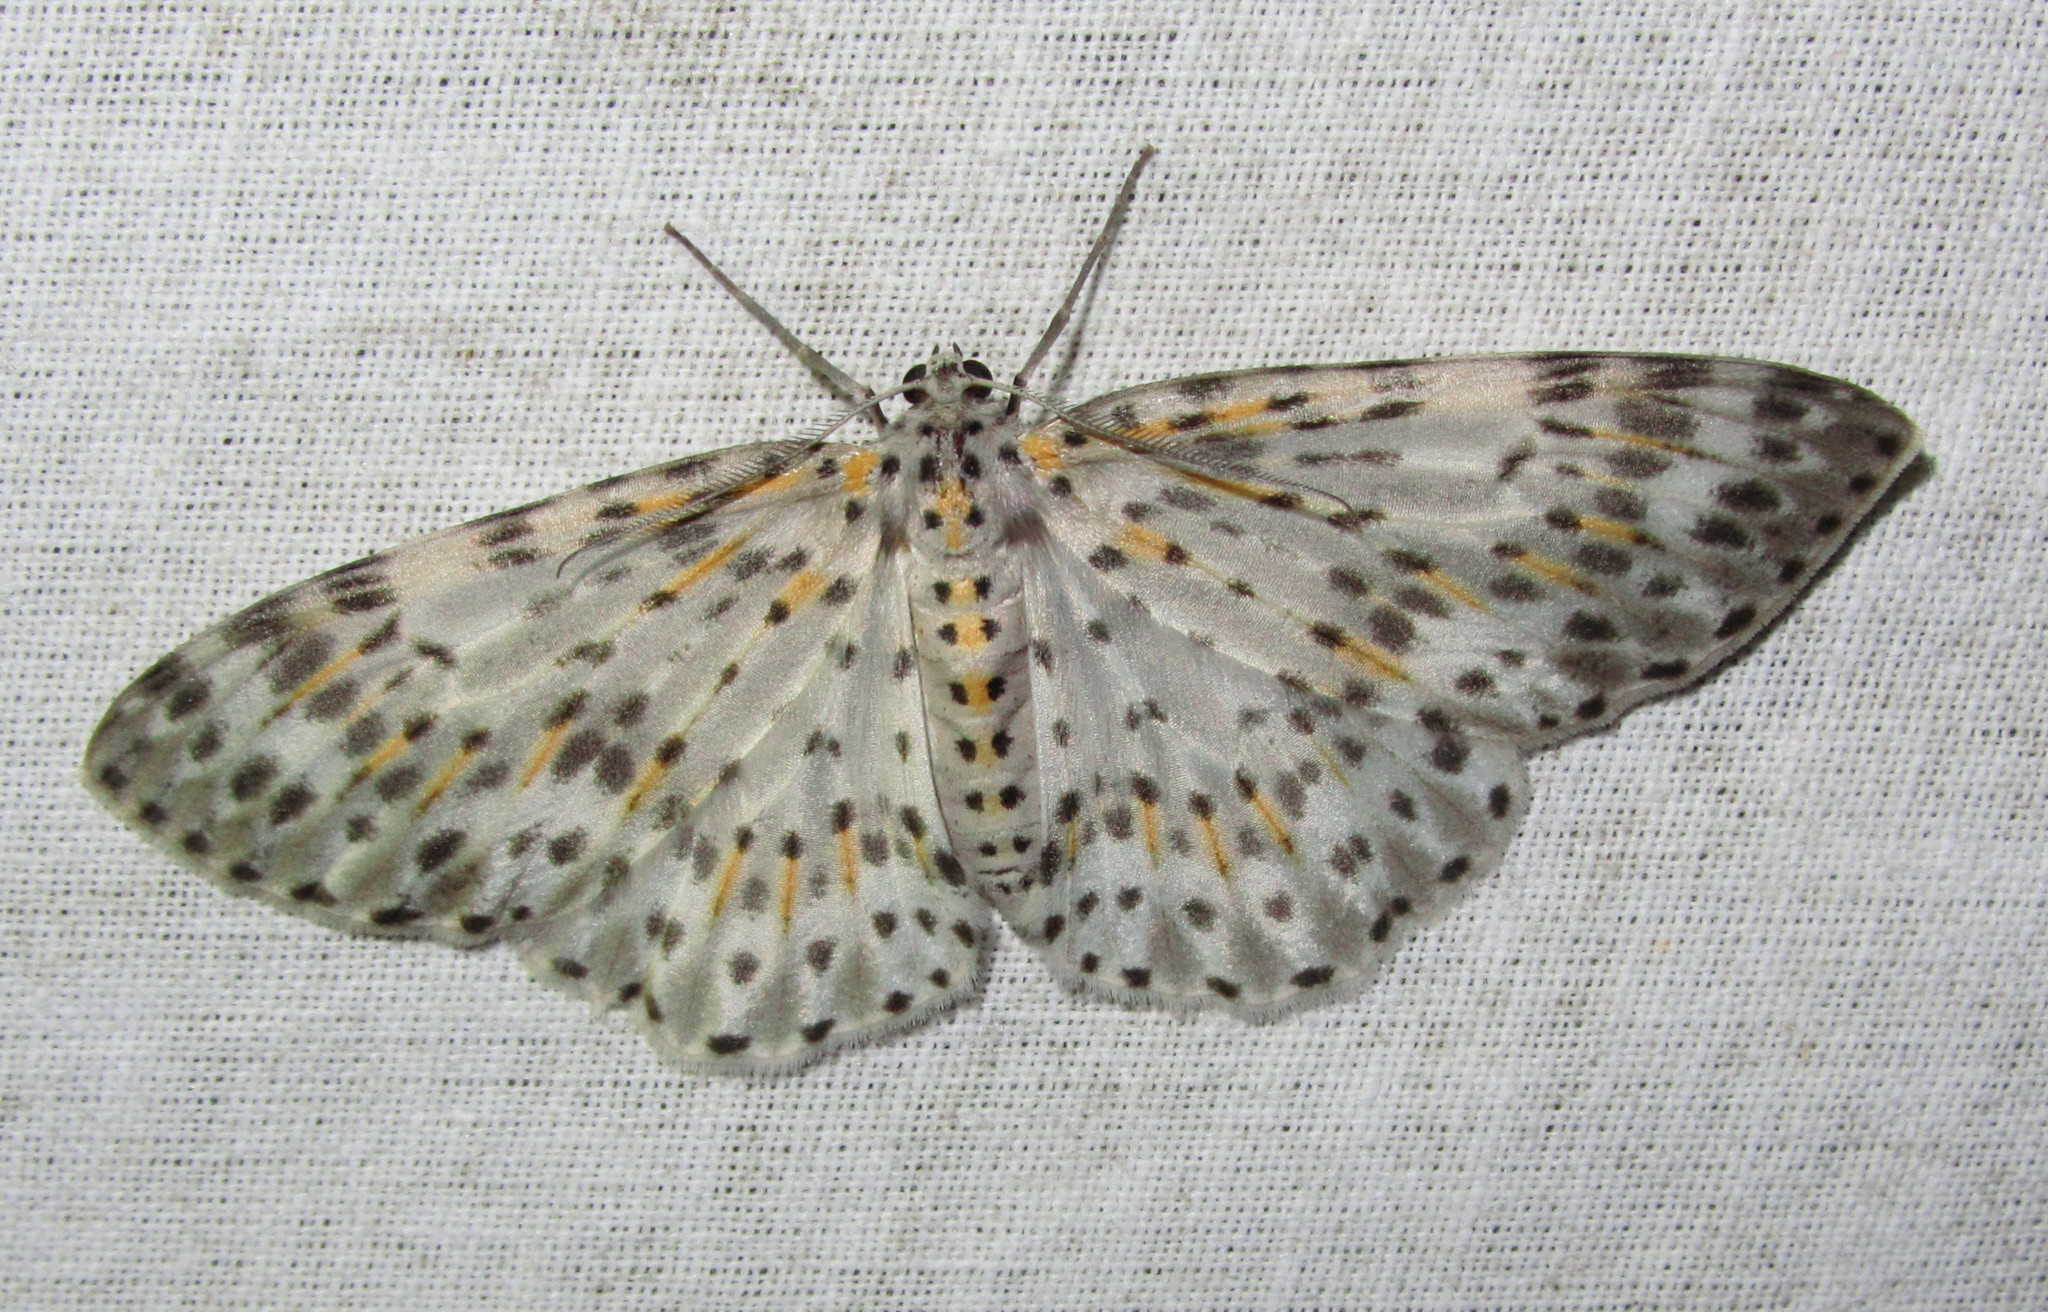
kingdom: Animalia
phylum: Arthropoda
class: Insecta
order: Lepidoptera
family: Geometridae
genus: Metapercnia
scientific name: Metapercnia ductaria
